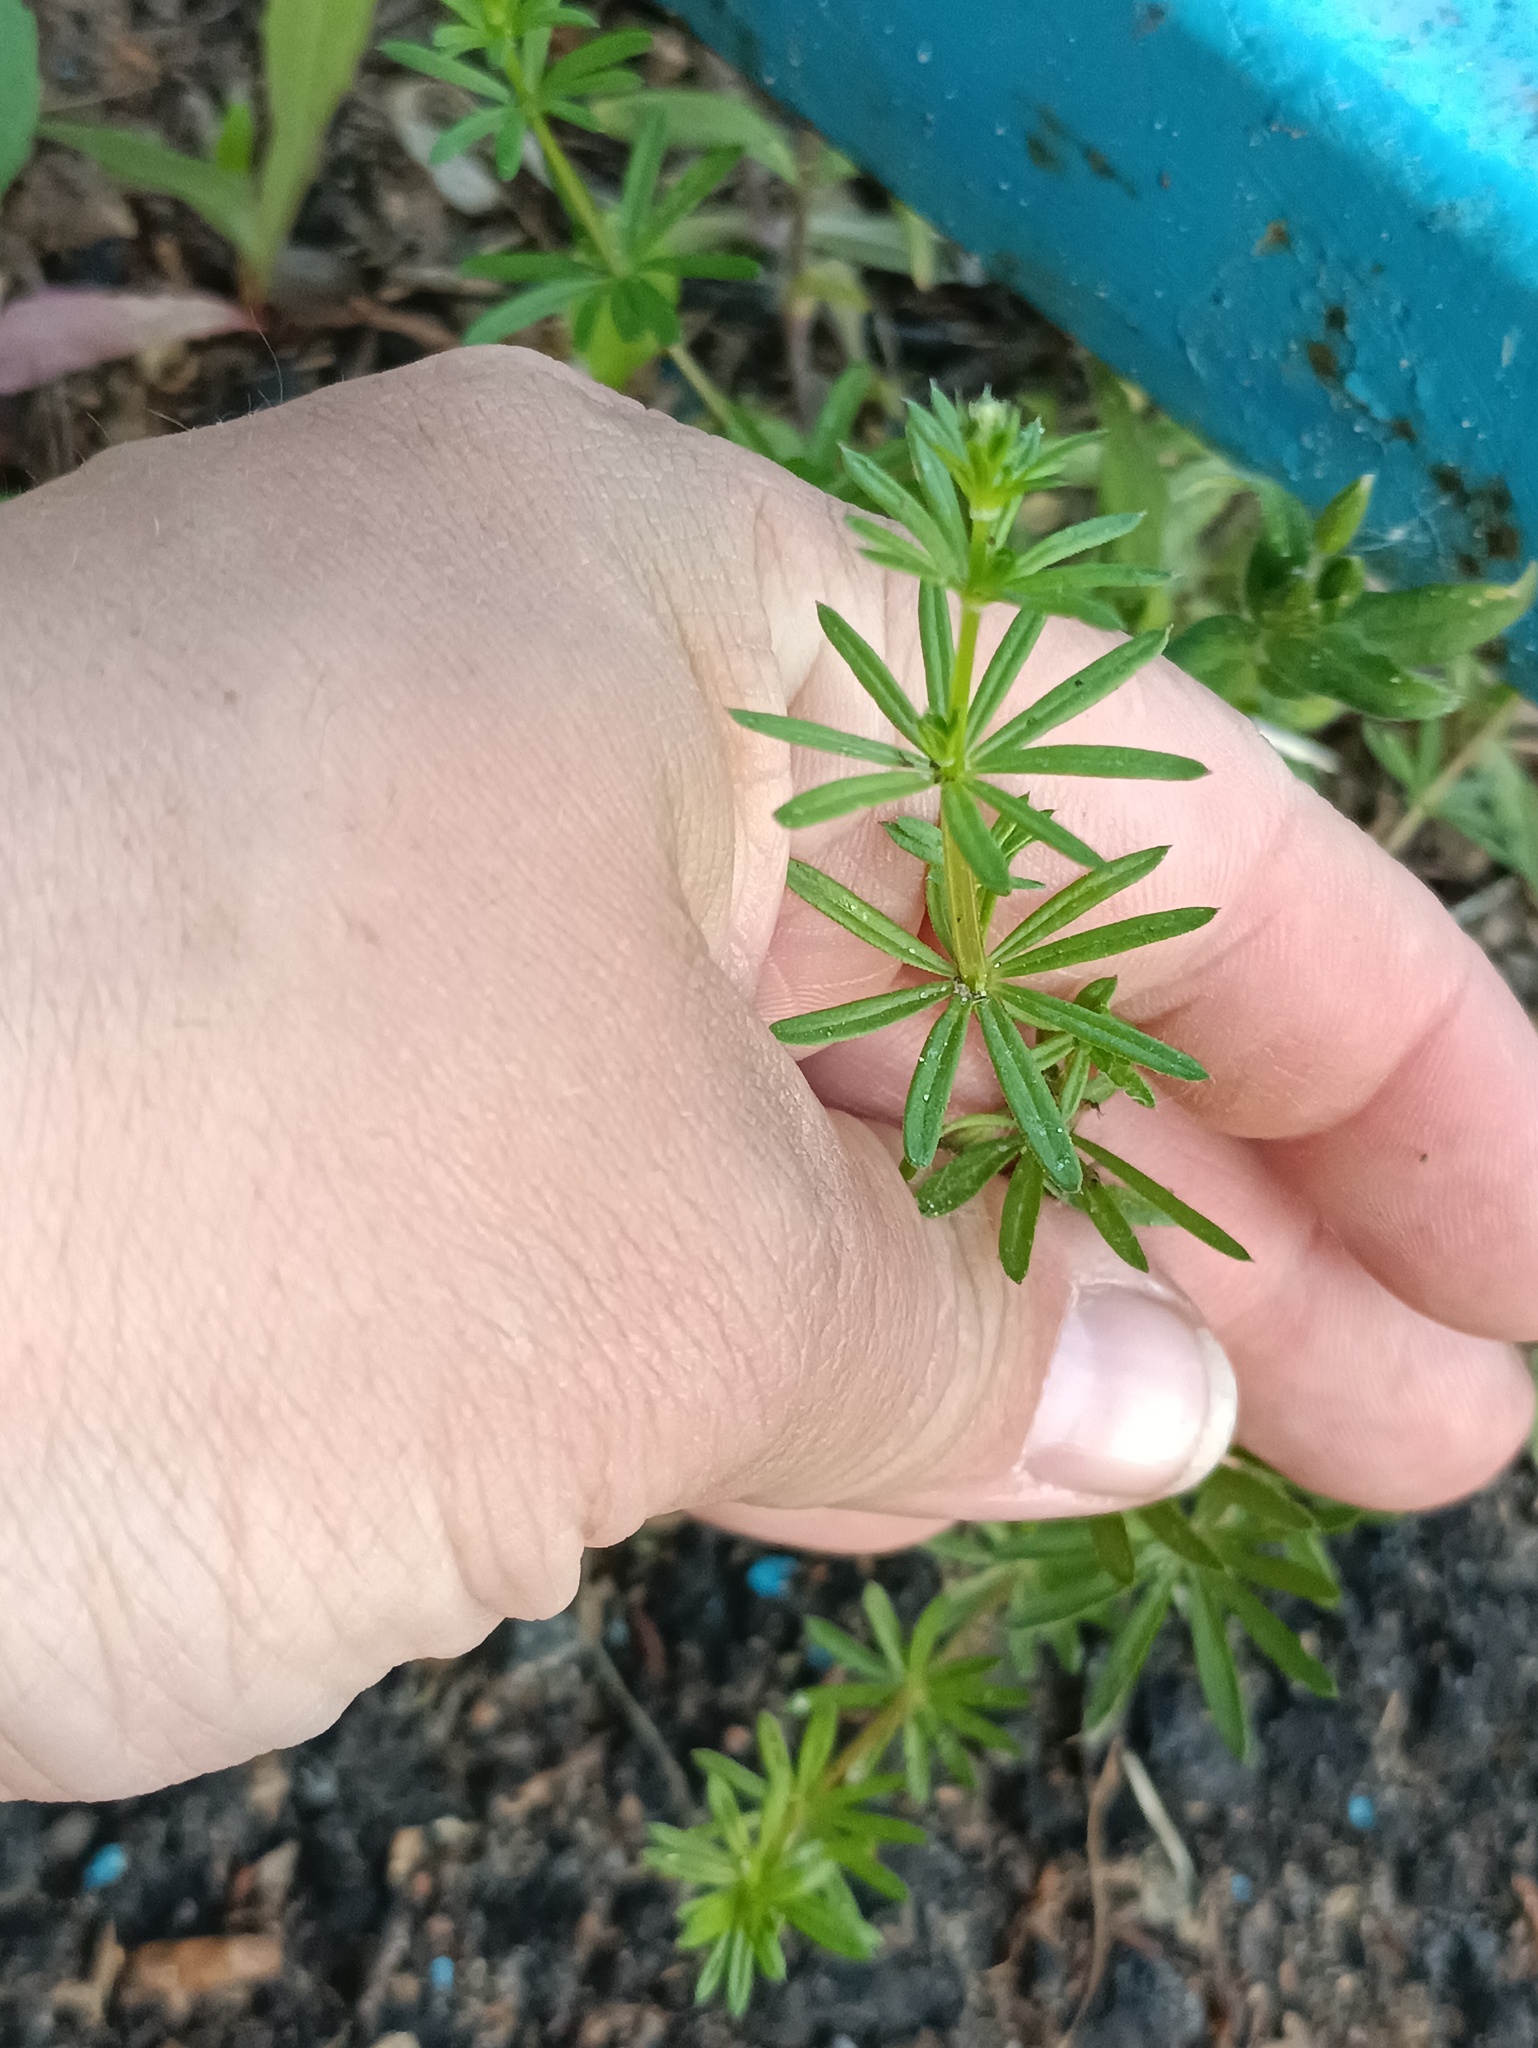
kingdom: Plantae
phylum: Tracheophyta
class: Magnoliopsida
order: Gentianales
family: Rubiaceae
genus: Galium
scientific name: Galium mollugo
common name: Hedge bedstraw
